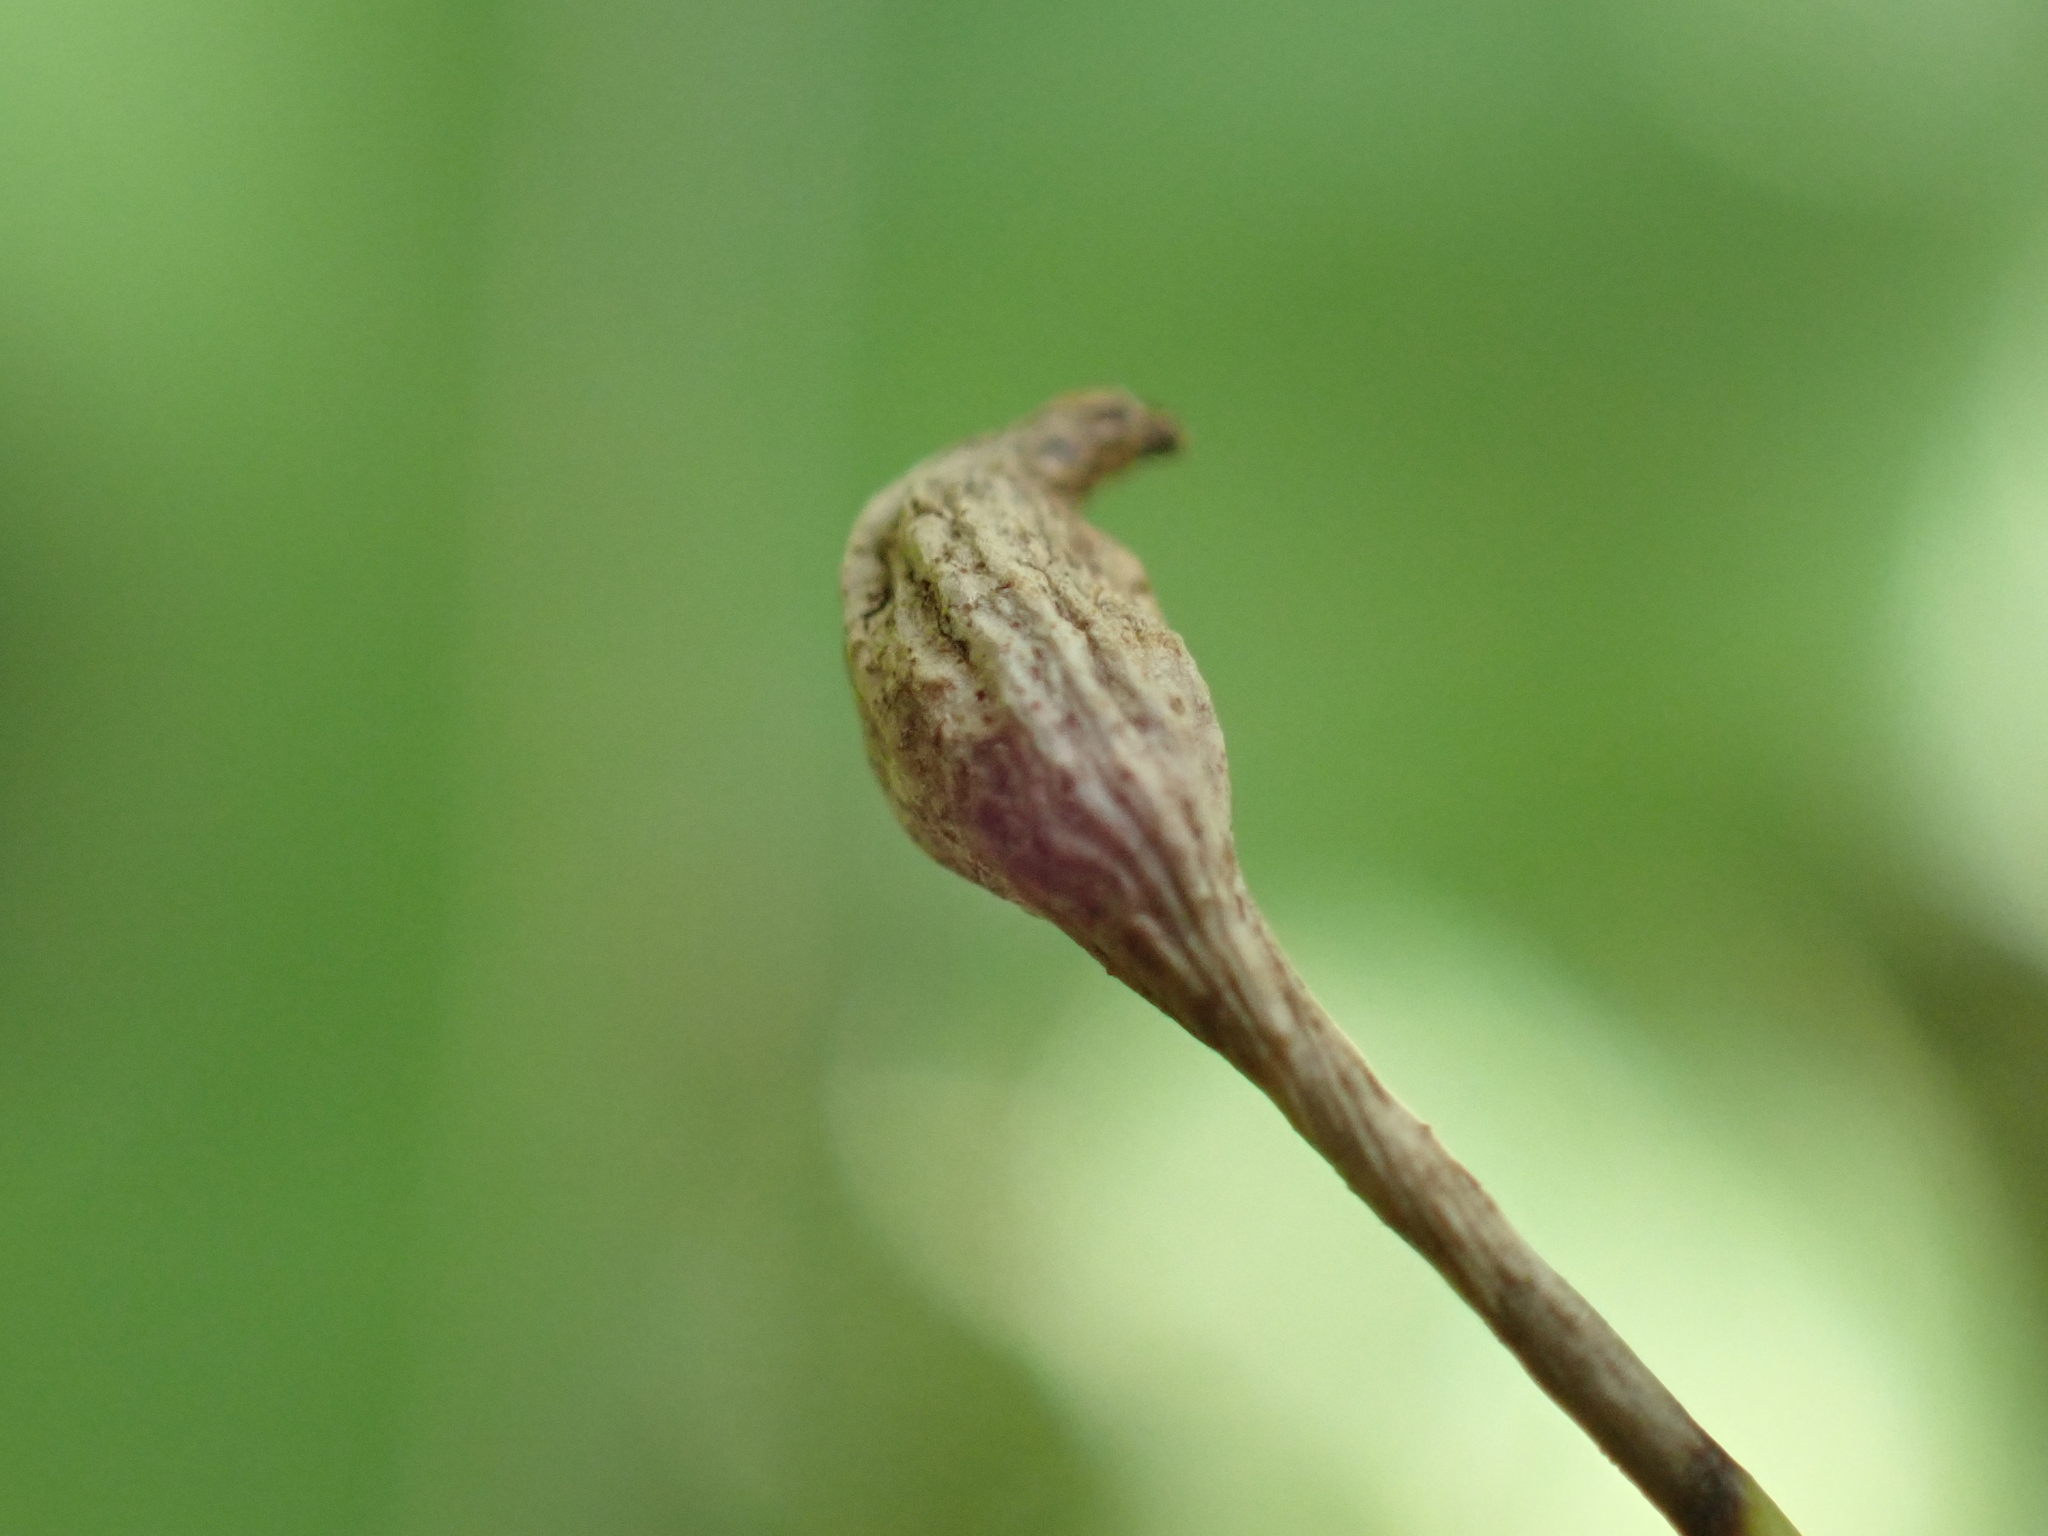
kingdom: Animalia
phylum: Arthropoda
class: Insecta
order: Hymenoptera
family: Cynipidae
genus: Callirhytis
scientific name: Callirhytis
